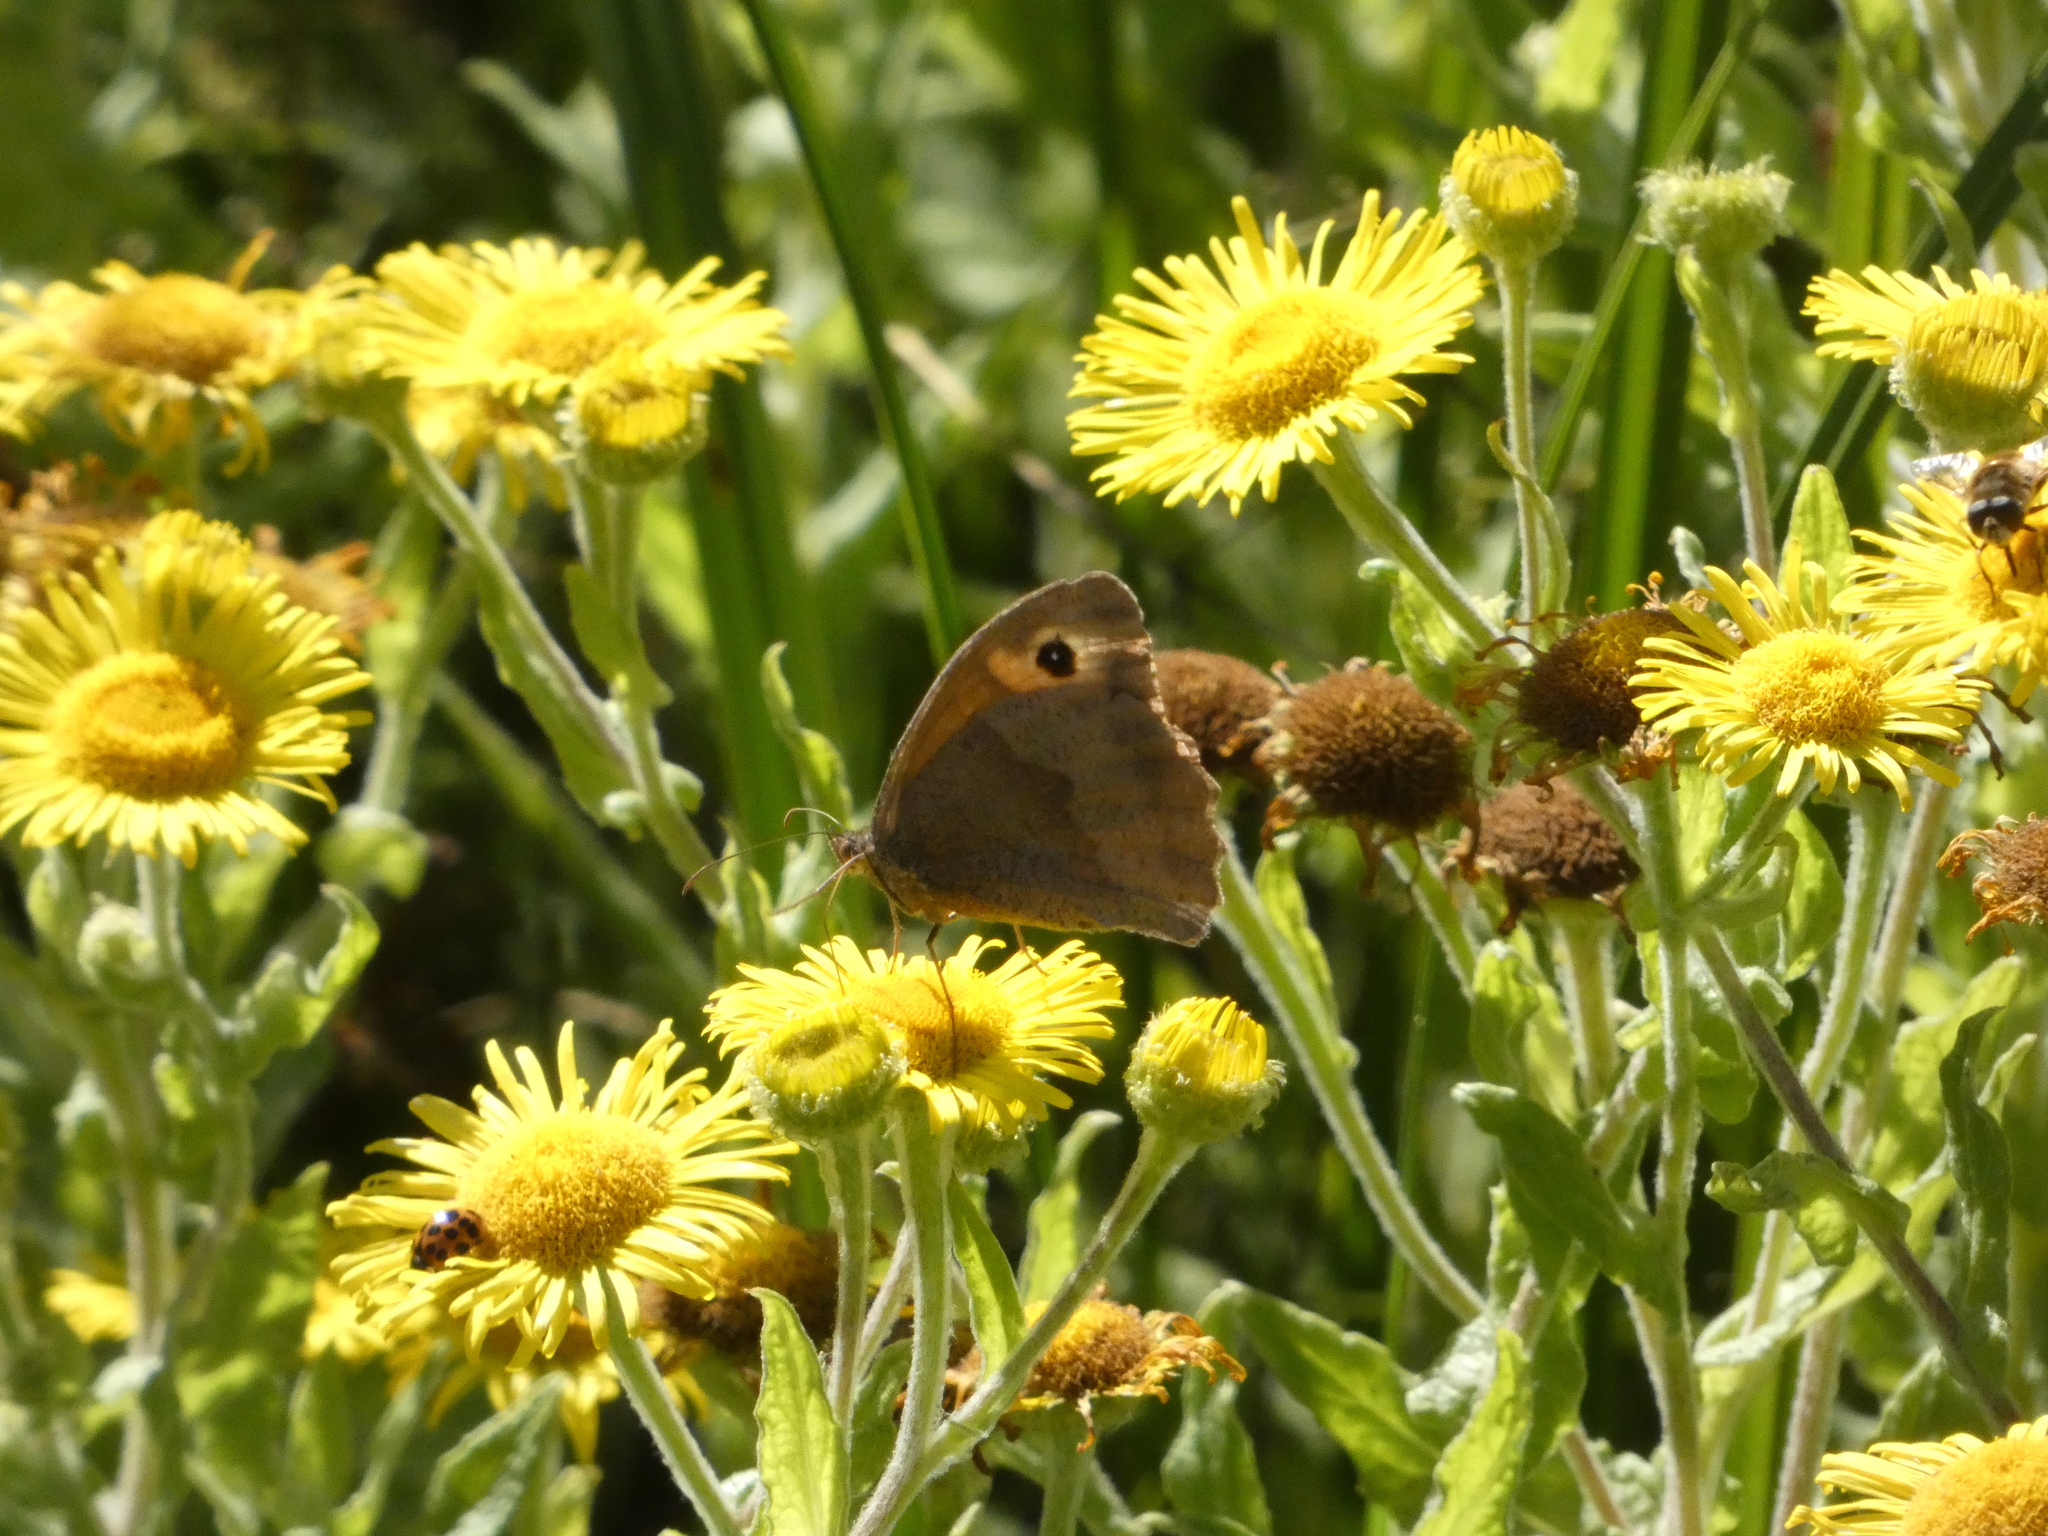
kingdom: Animalia
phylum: Arthropoda
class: Insecta
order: Lepidoptera
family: Nymphalidae
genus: Maniola
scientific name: Maniola jurtina
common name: Meadow brown
